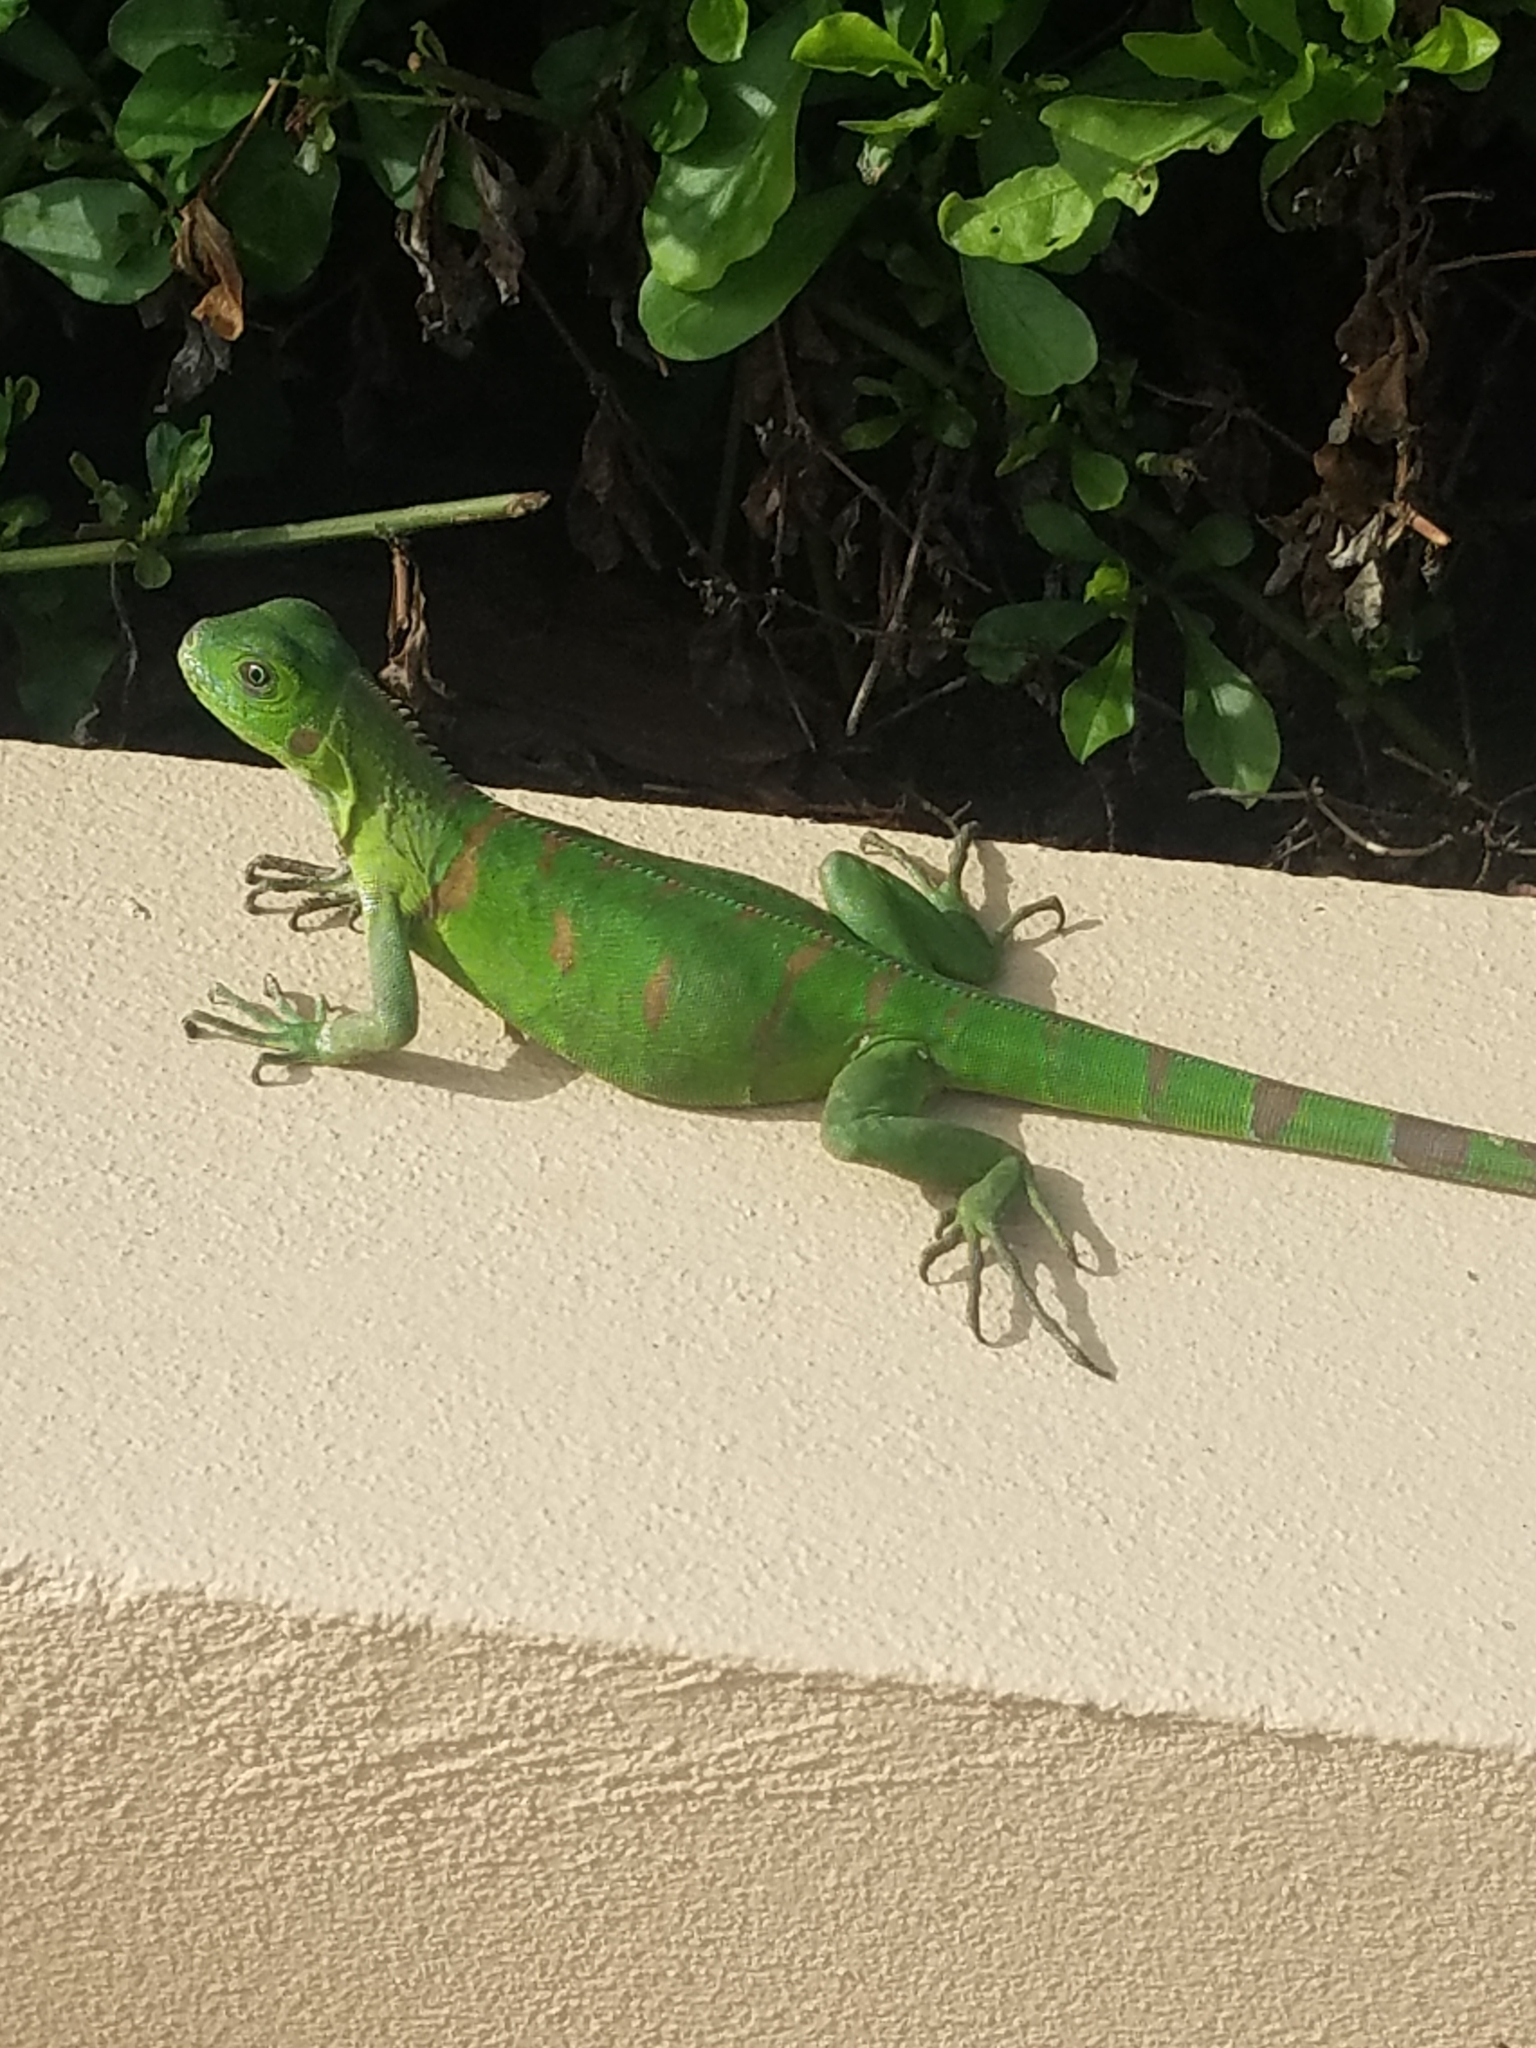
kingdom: Animalia
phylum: Chordata
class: Squamata
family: Iguanidae
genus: Iguana
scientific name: Iguana iguana
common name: Green iguana
